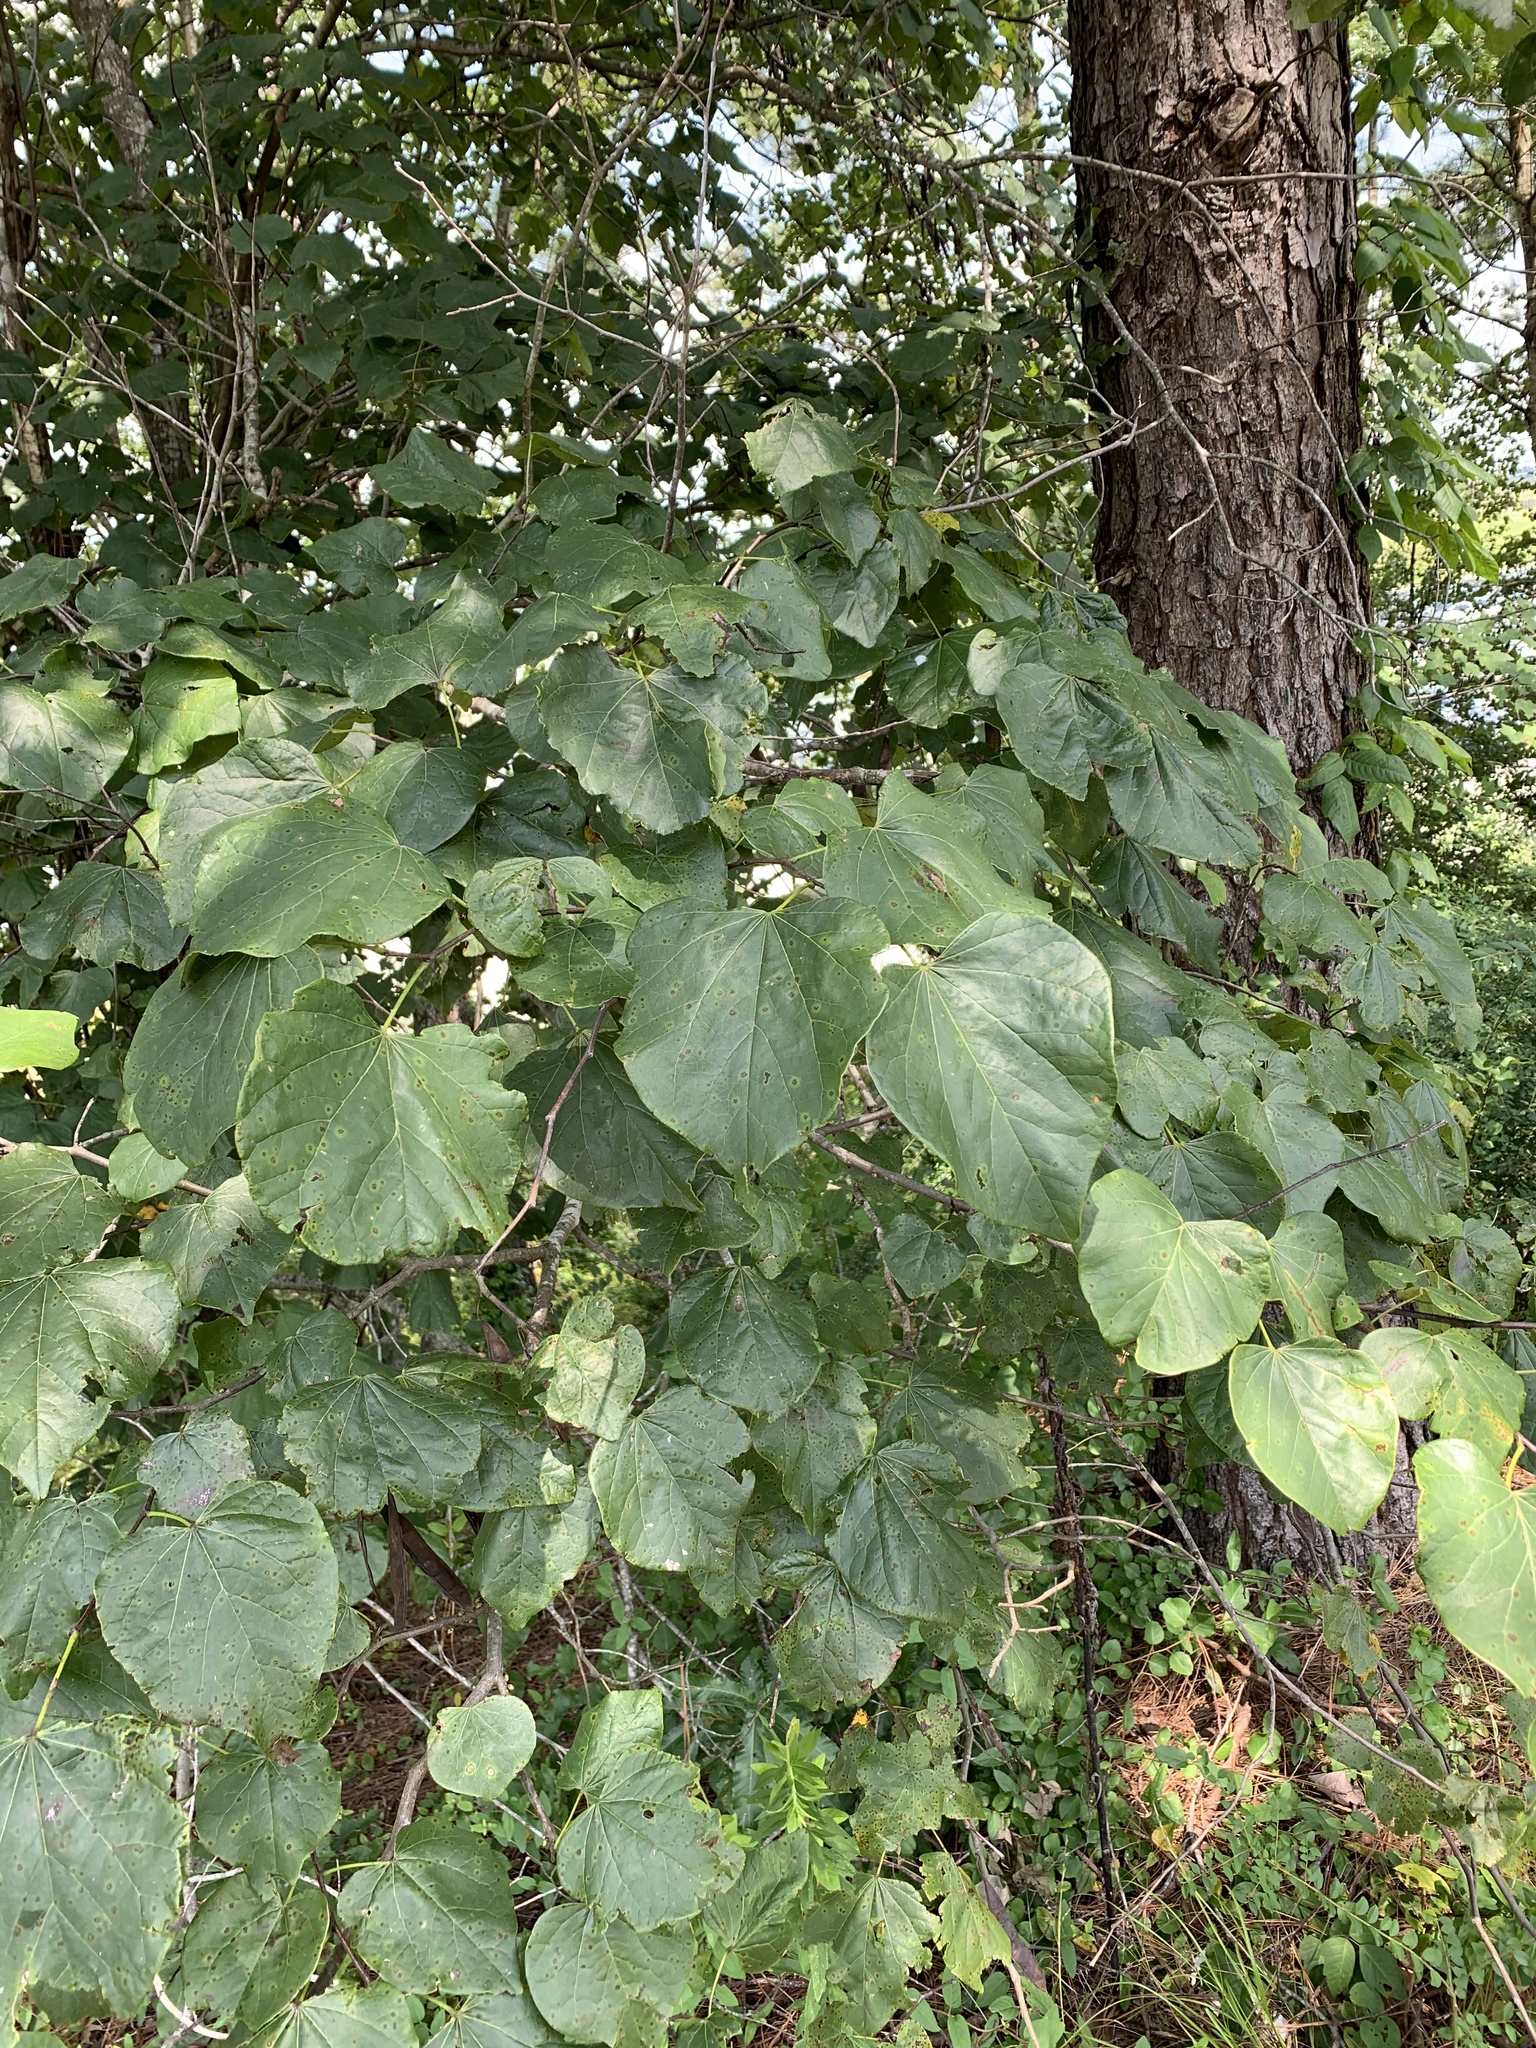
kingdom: Plantae
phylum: Tracheophyta
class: Magnoliopsida
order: Fabales
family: Fabaceae
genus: Cercis
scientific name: Cercis canadensis
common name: Eastern redbud
